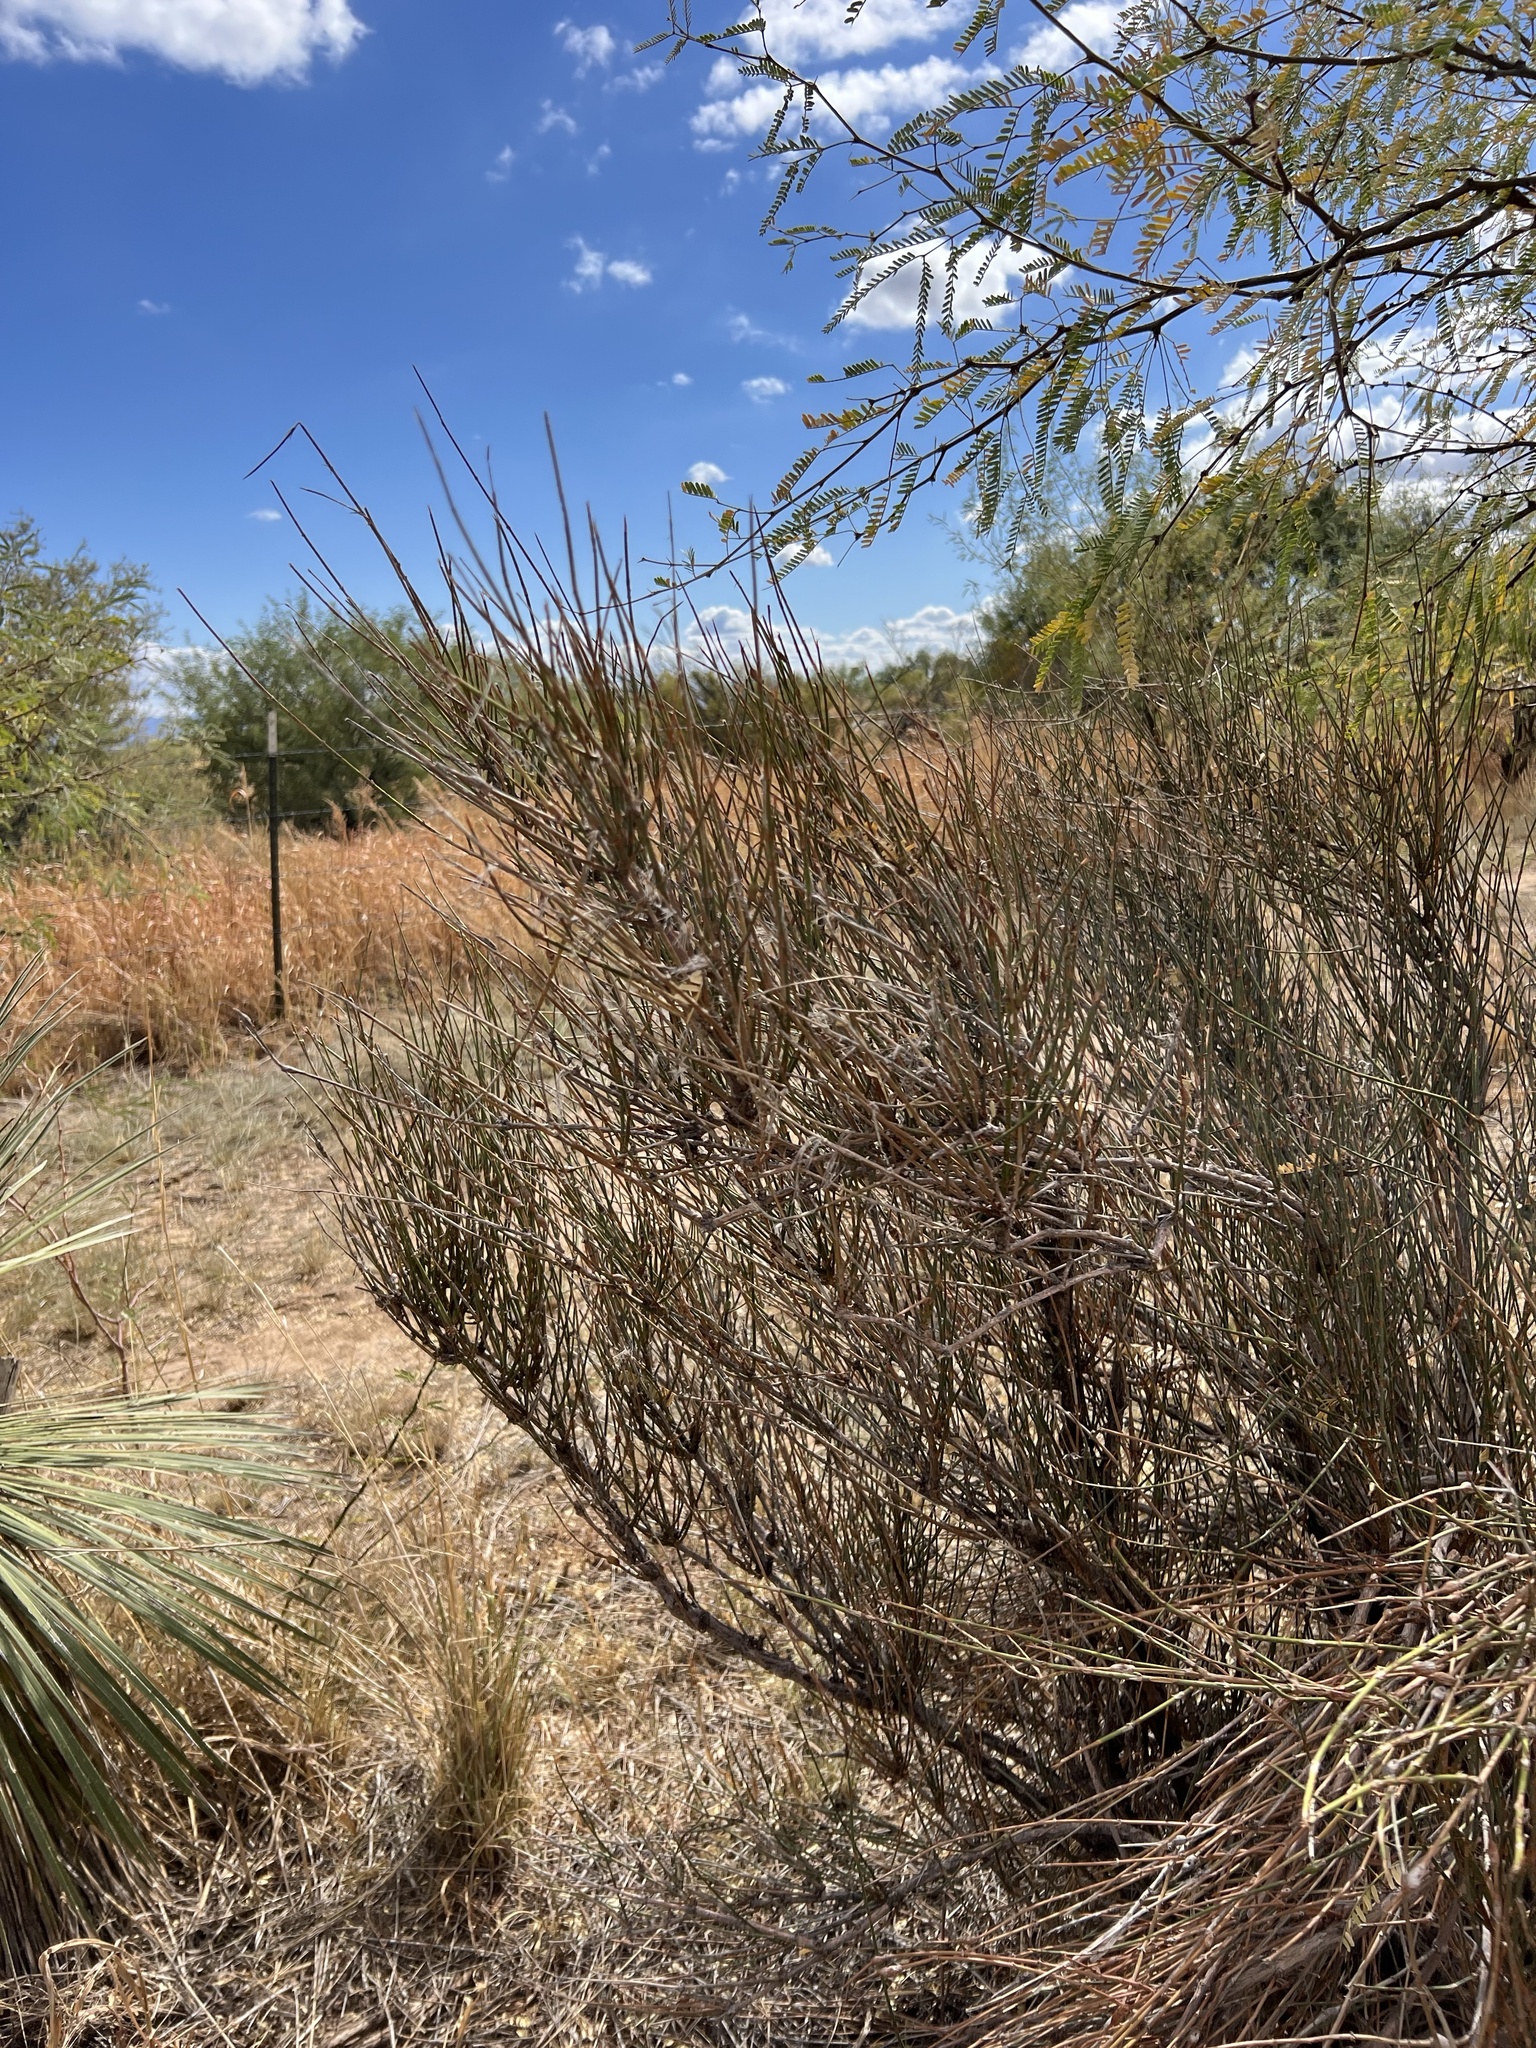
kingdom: Plantae
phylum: Tracheophyta
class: Gnetopsida
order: Ephedrales
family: Ephedraceae
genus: Ephedra
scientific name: Ephedra trifurca
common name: Mexican-tea
